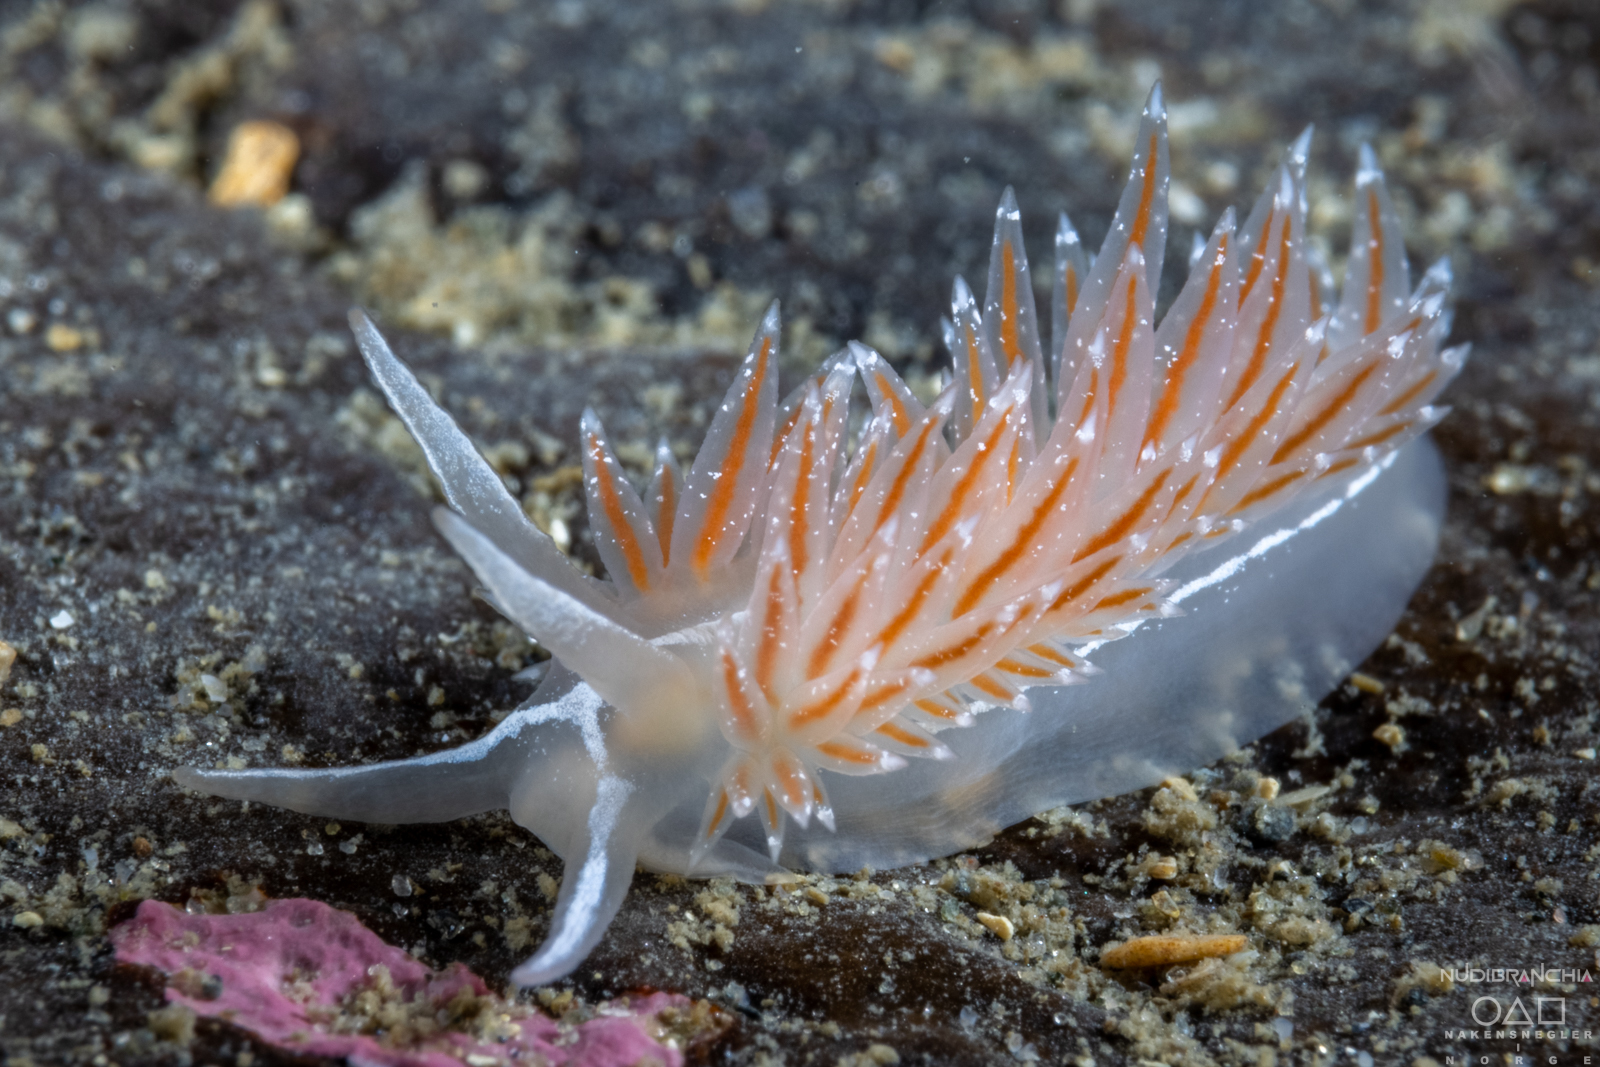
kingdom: Animalia
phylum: Mollusca
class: Gastropoda
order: Nudibranchia
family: Coryphellidae
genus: Coryphella
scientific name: Coryphella monicae
